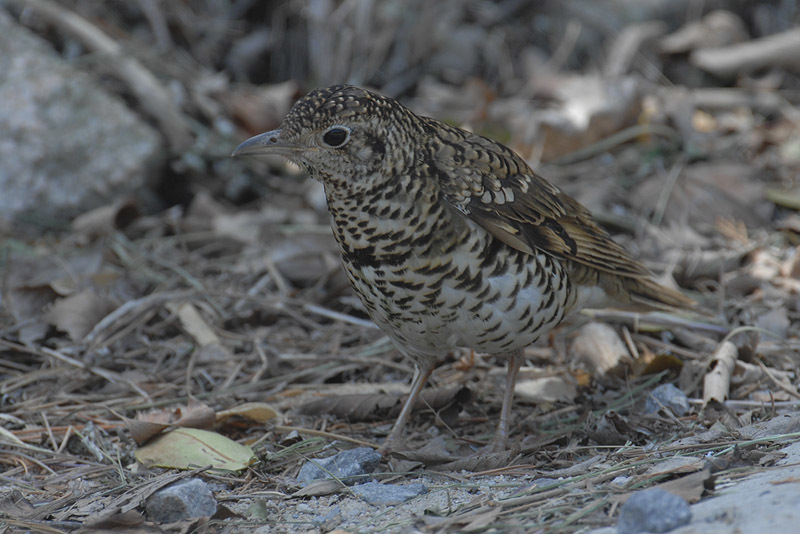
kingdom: Animalia
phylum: Chordata
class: Aves
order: Passeriformes
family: Turdidae
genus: Zoothera
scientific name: Zoothera aurea
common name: White's thrush
